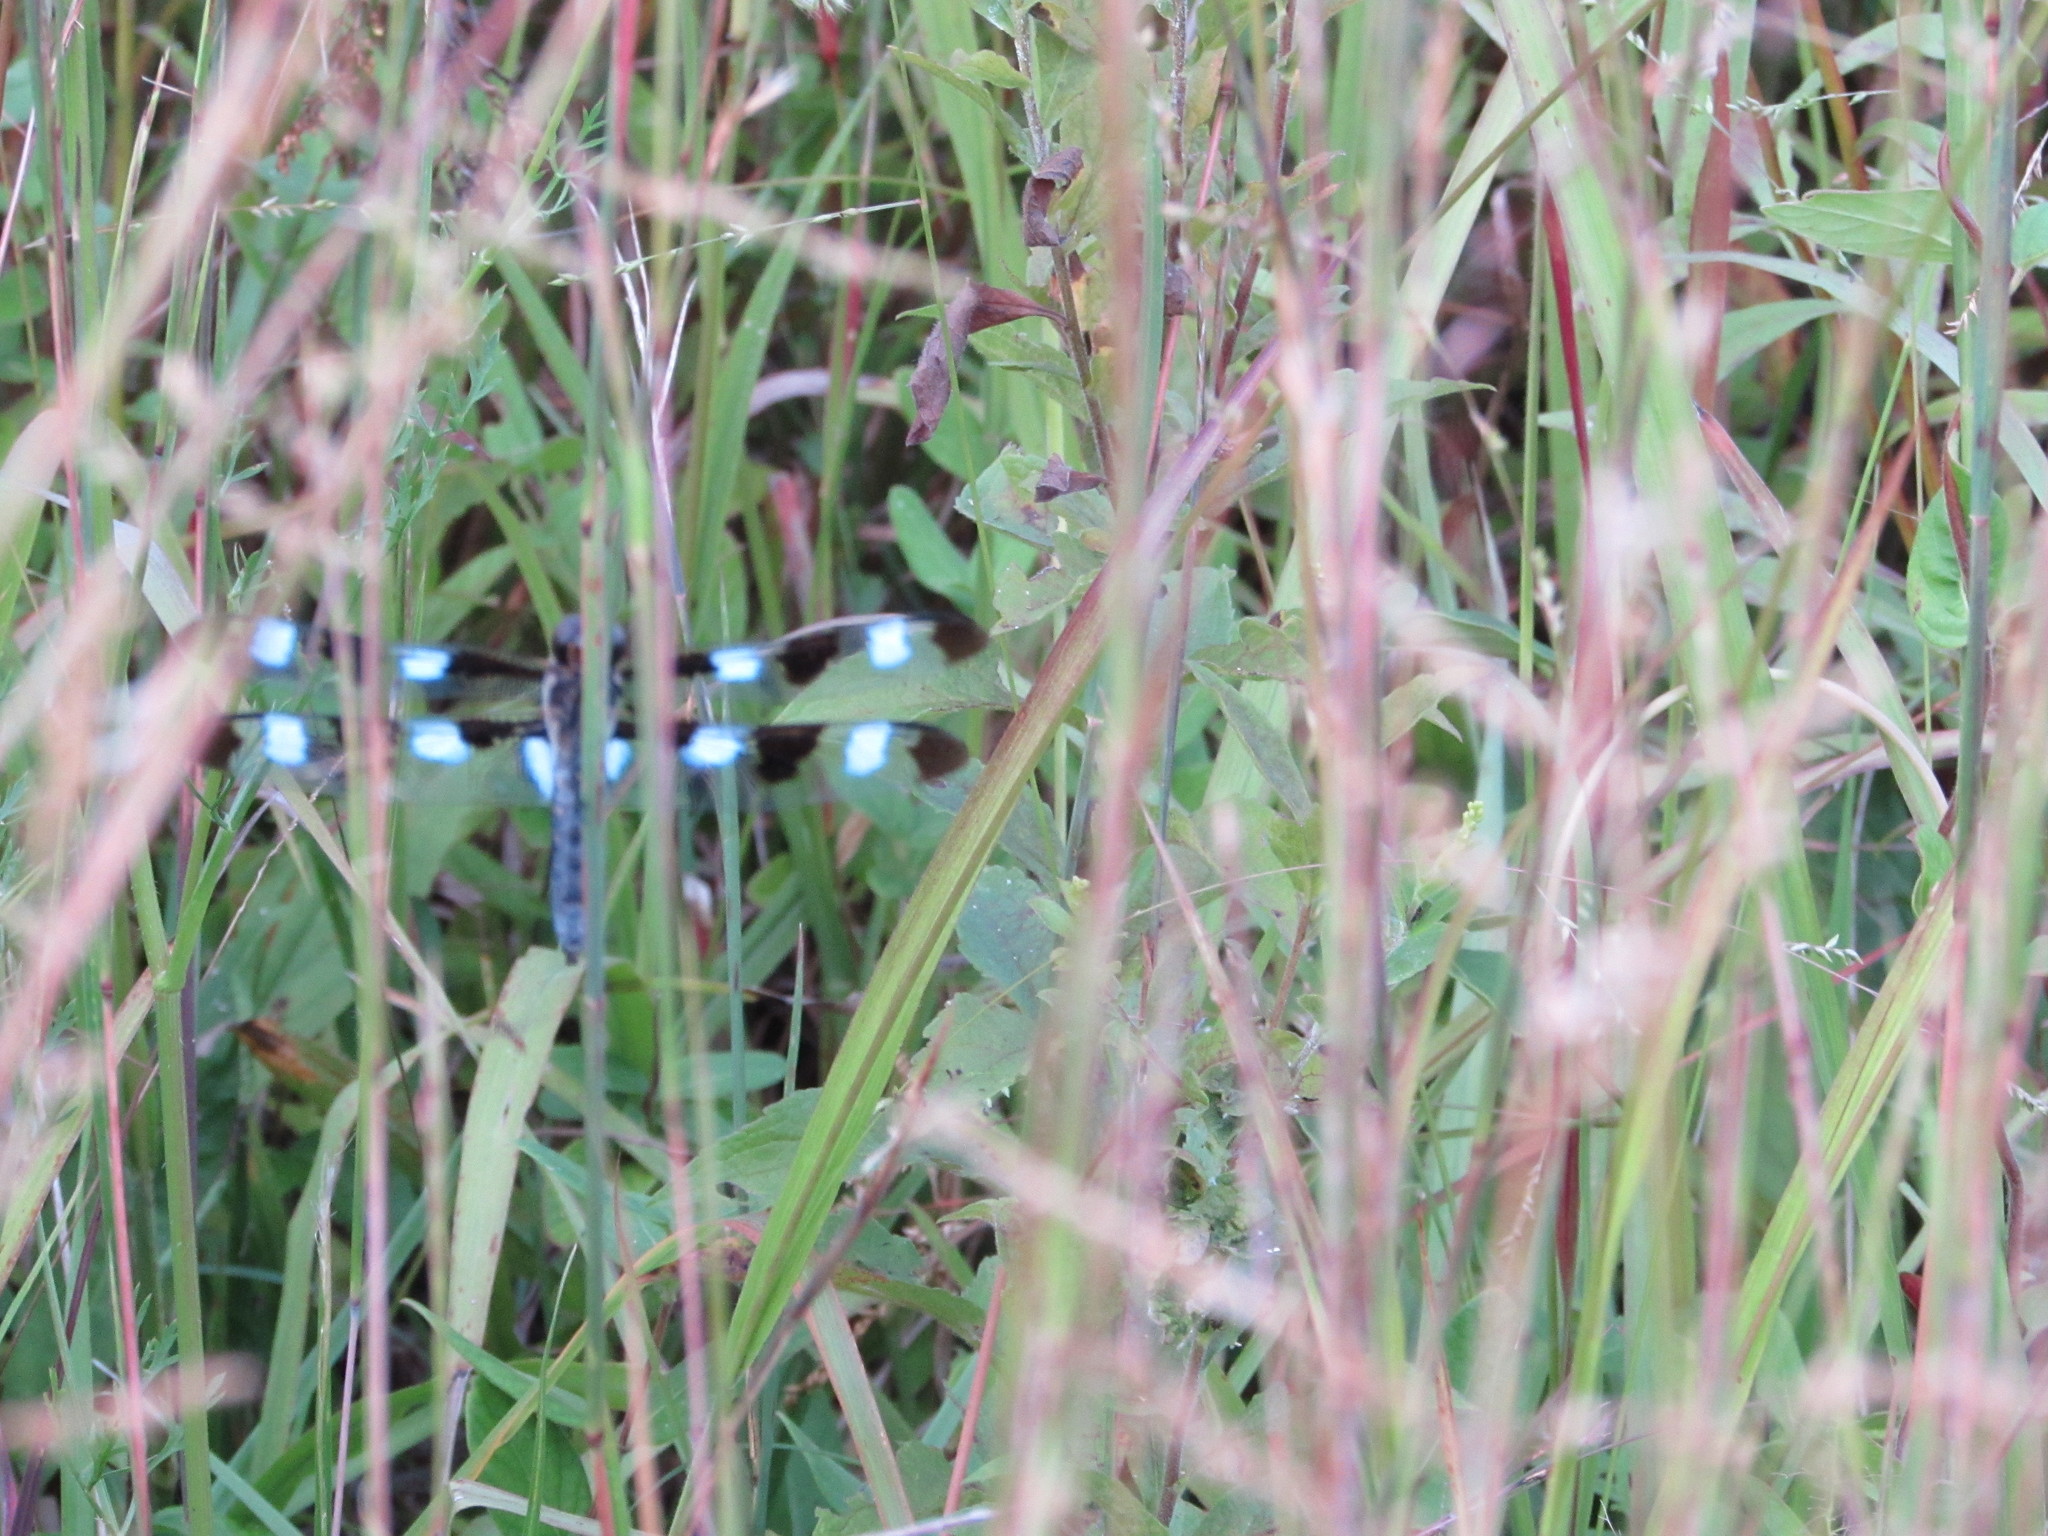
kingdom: Animalia
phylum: Arthropoda
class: Insecta
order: Odonata
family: Libellulidae
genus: Libellula
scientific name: Libellula pulchella
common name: Twelve-spotted skimmer
